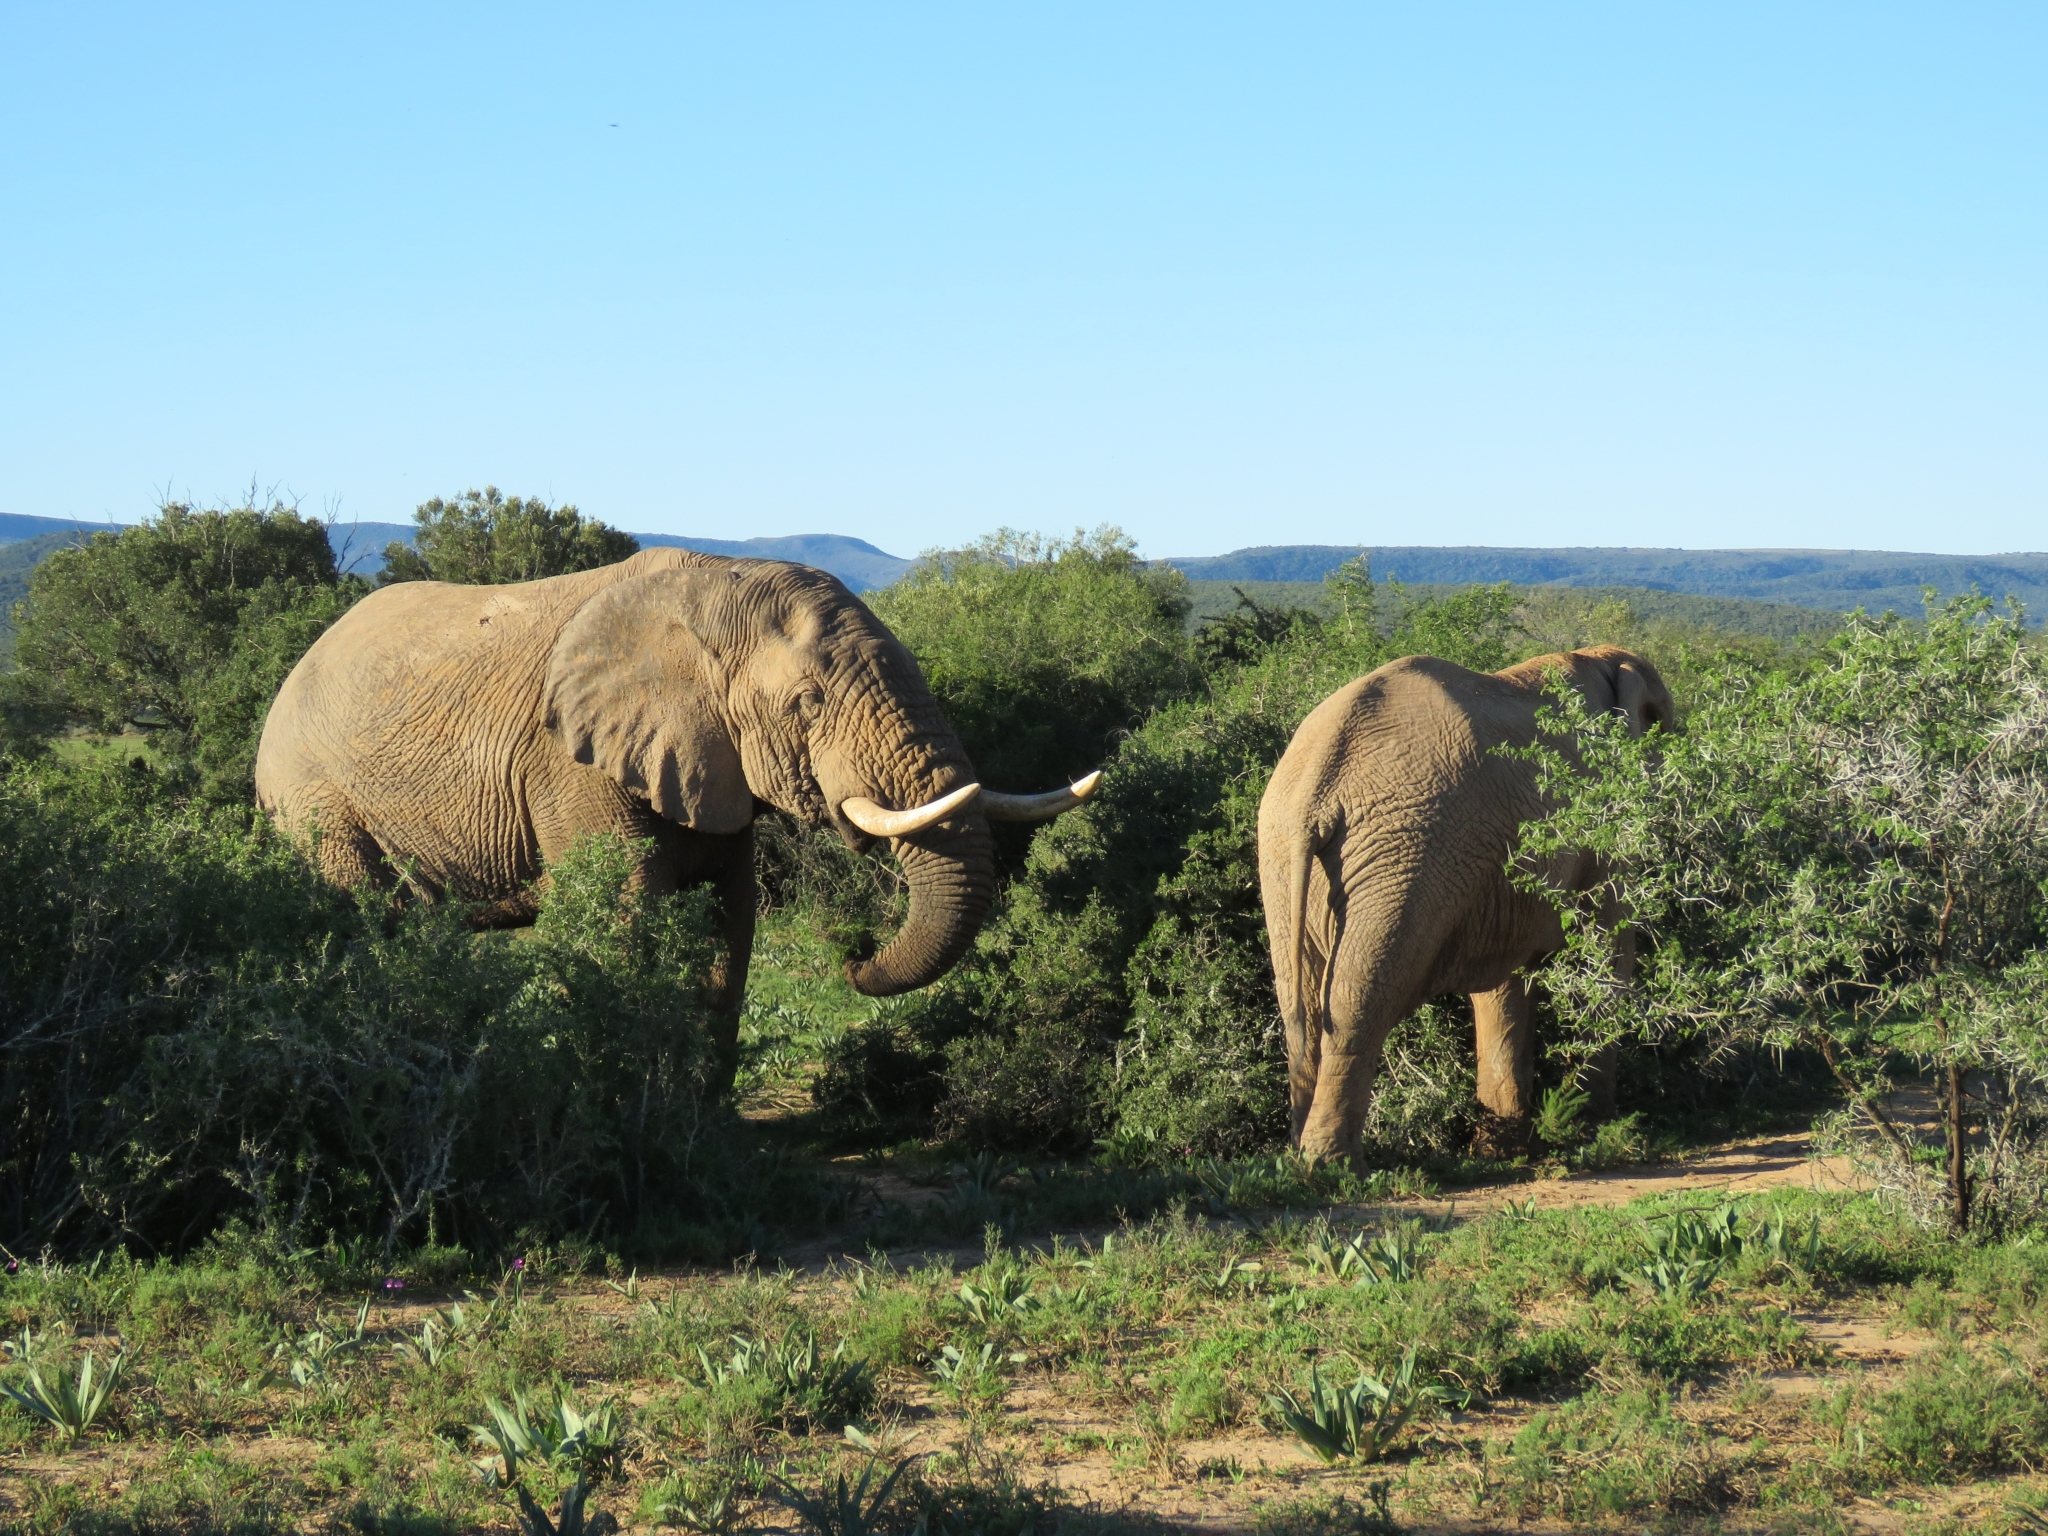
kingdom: Animalia
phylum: Chordata
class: Mammalia
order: Proboscidea
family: Elephantidae
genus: Loxodonta
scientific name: Loxodonta africana
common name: African elephant
